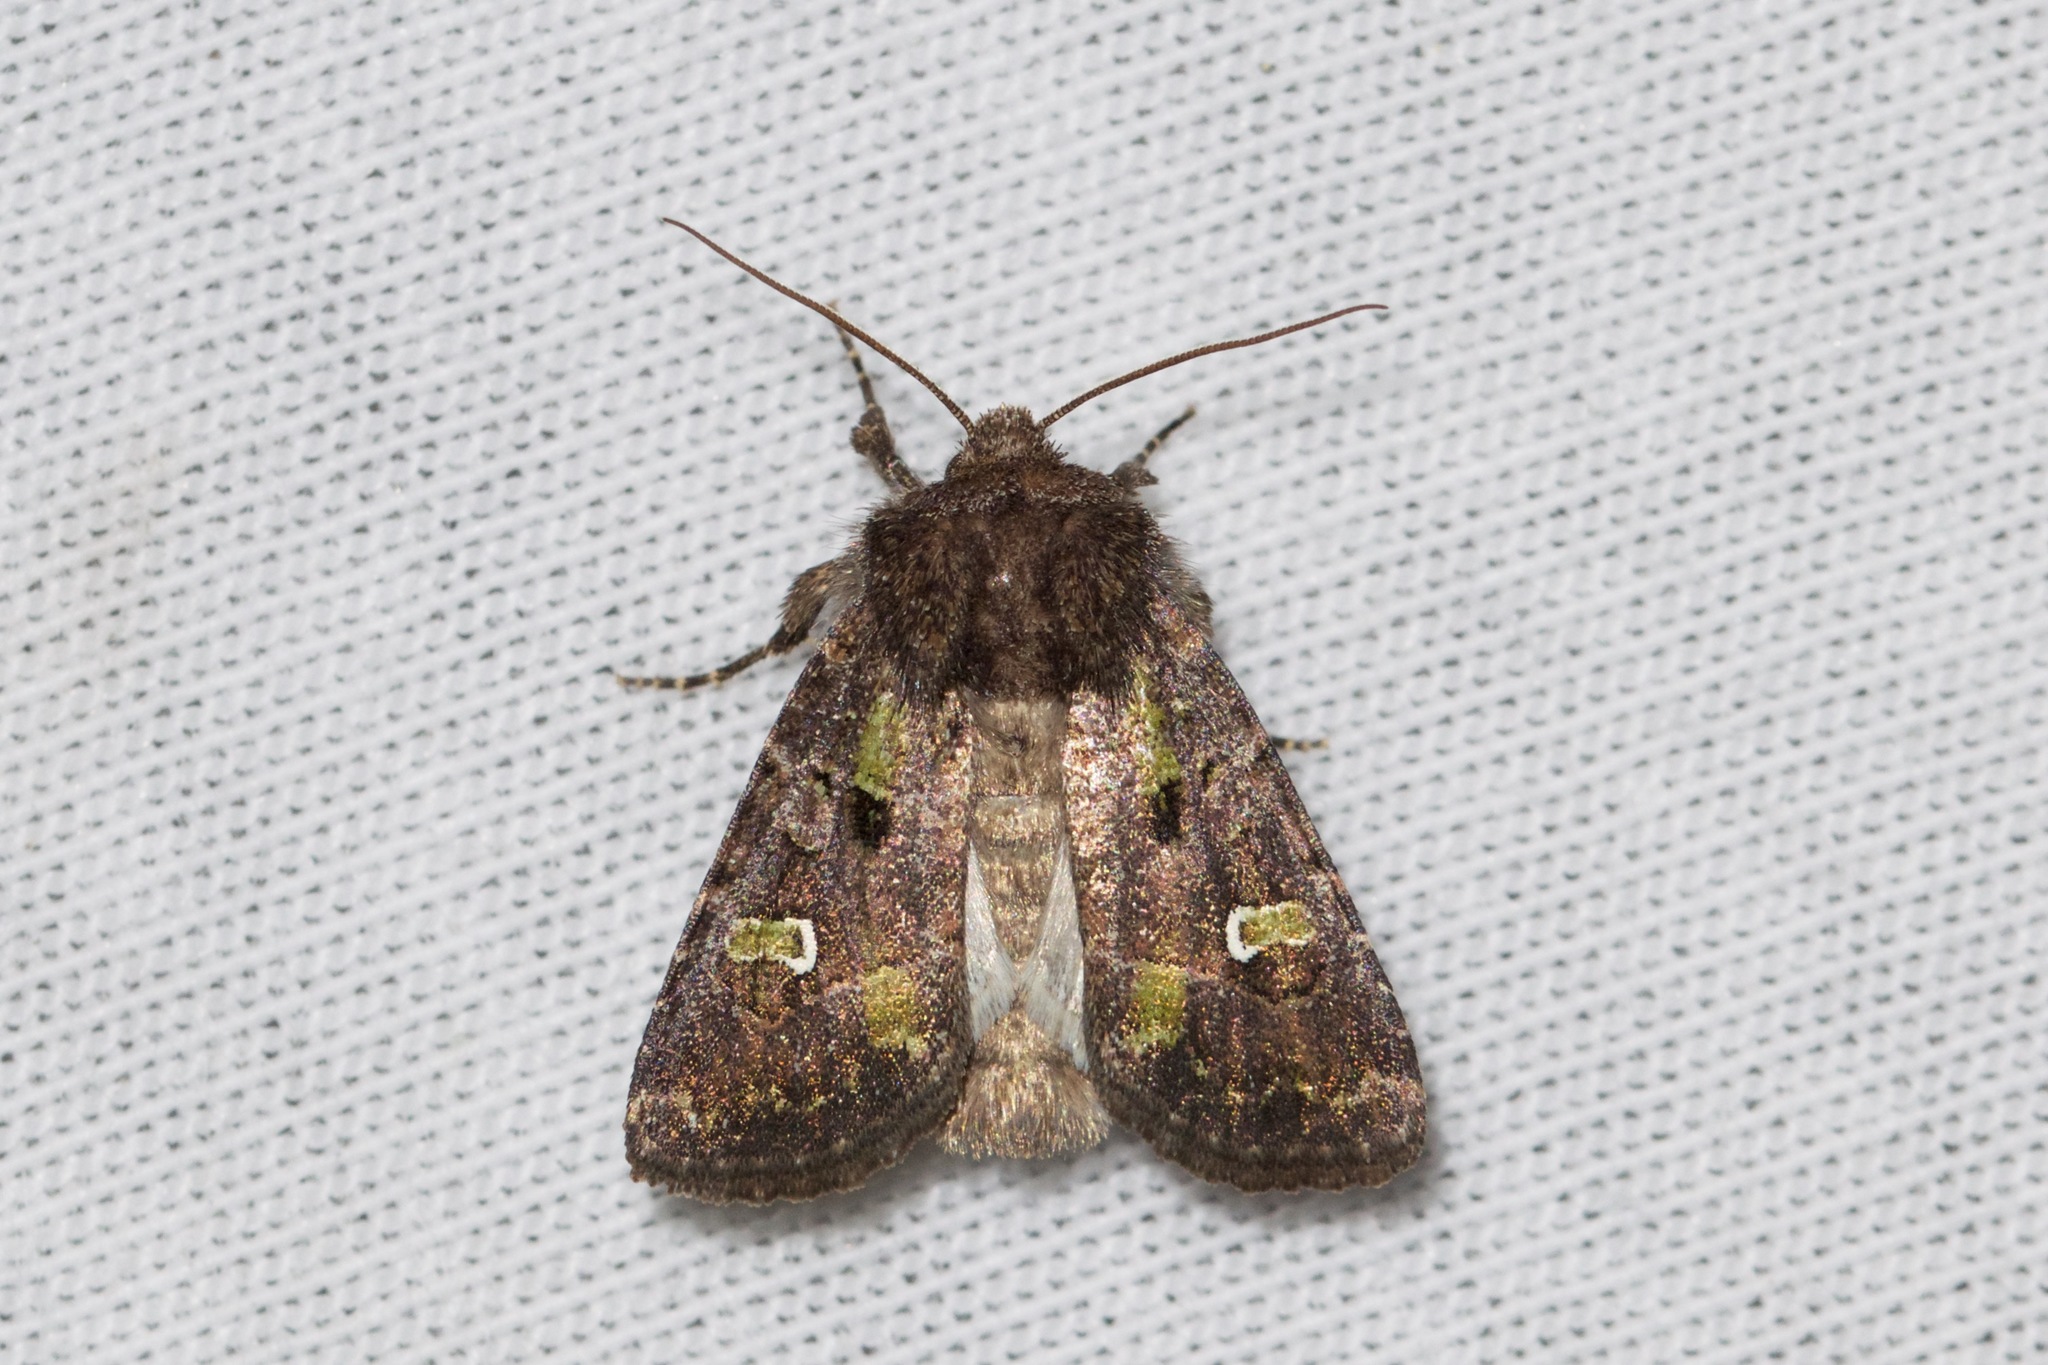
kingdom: Animalia
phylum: Arthropoda
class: Insecta
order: Lepidoptera
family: Noctuidae
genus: Lacinipolia
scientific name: Lacinipolia renigera
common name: Kidney-spotted minor
